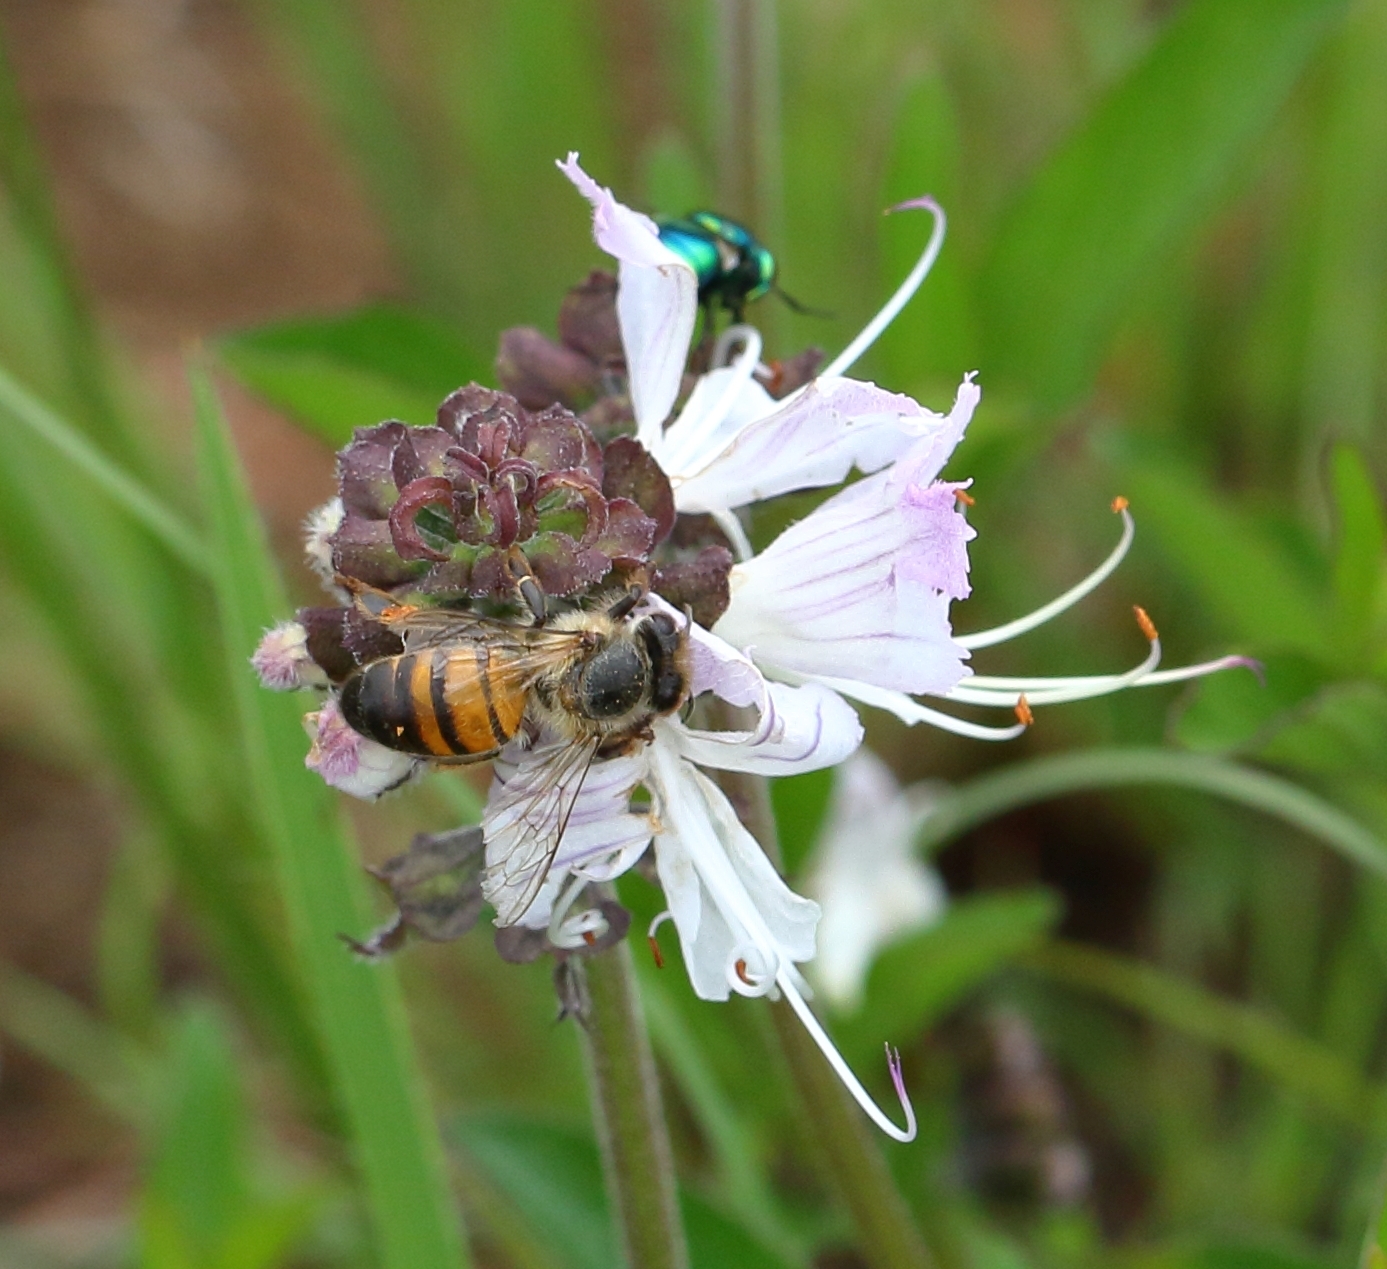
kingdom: Animalia
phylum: Arthropoda
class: Insecta
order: Hymenoptera
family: Apidae
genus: Apis
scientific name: Apis mellifera
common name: Honey bee
